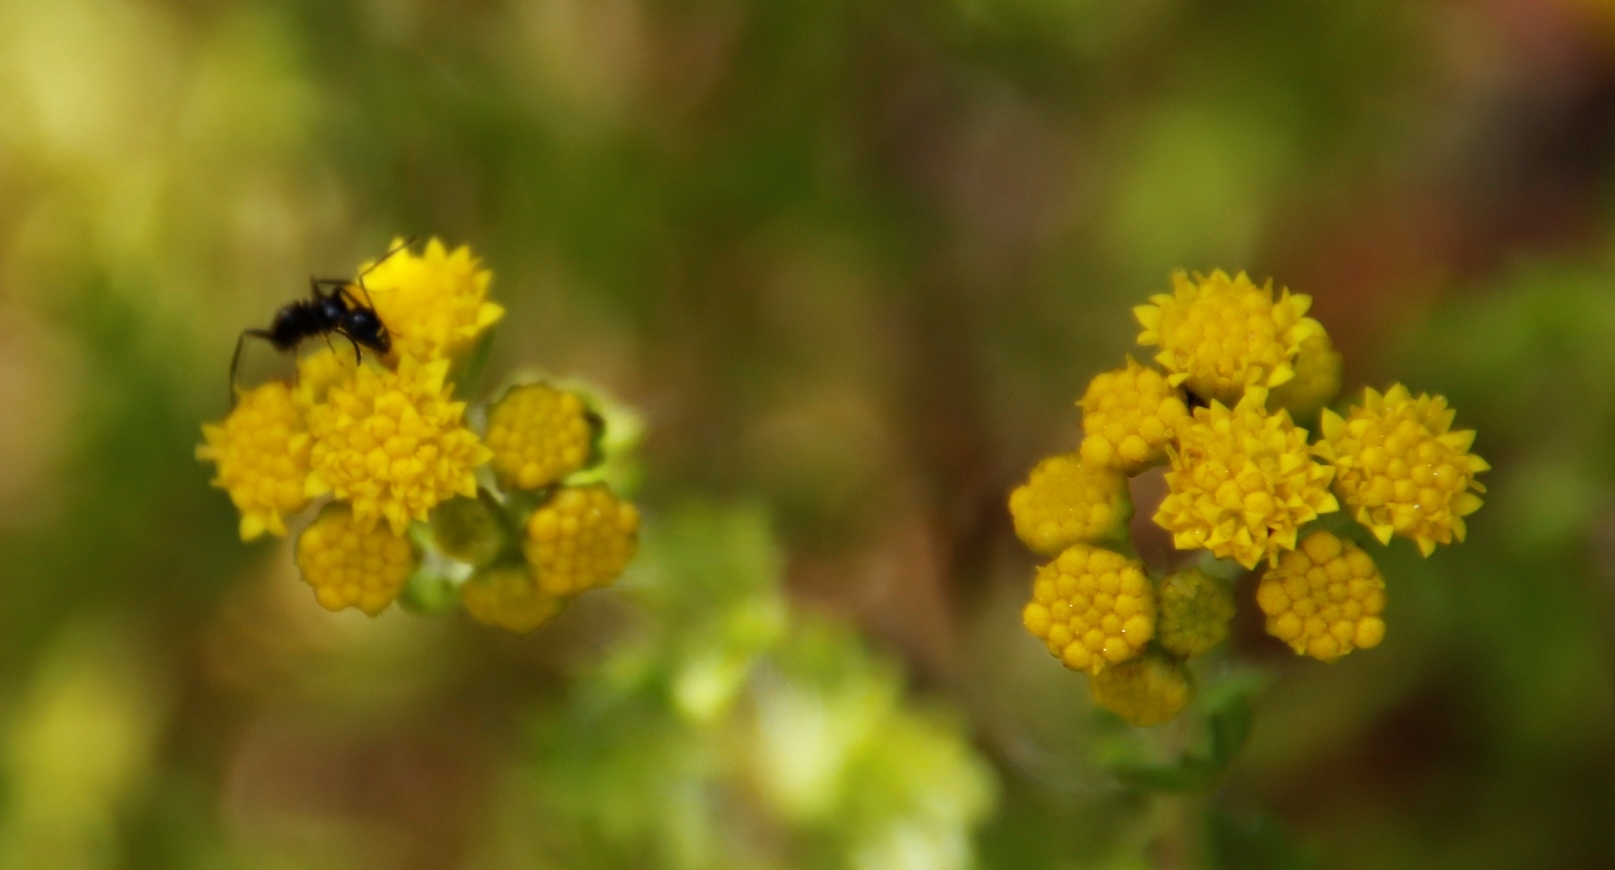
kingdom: Animalia
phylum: Arthropoda
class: Insecta
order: Hymenoptera
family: Formicidae
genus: Camponotus
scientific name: Camponotus werthi
